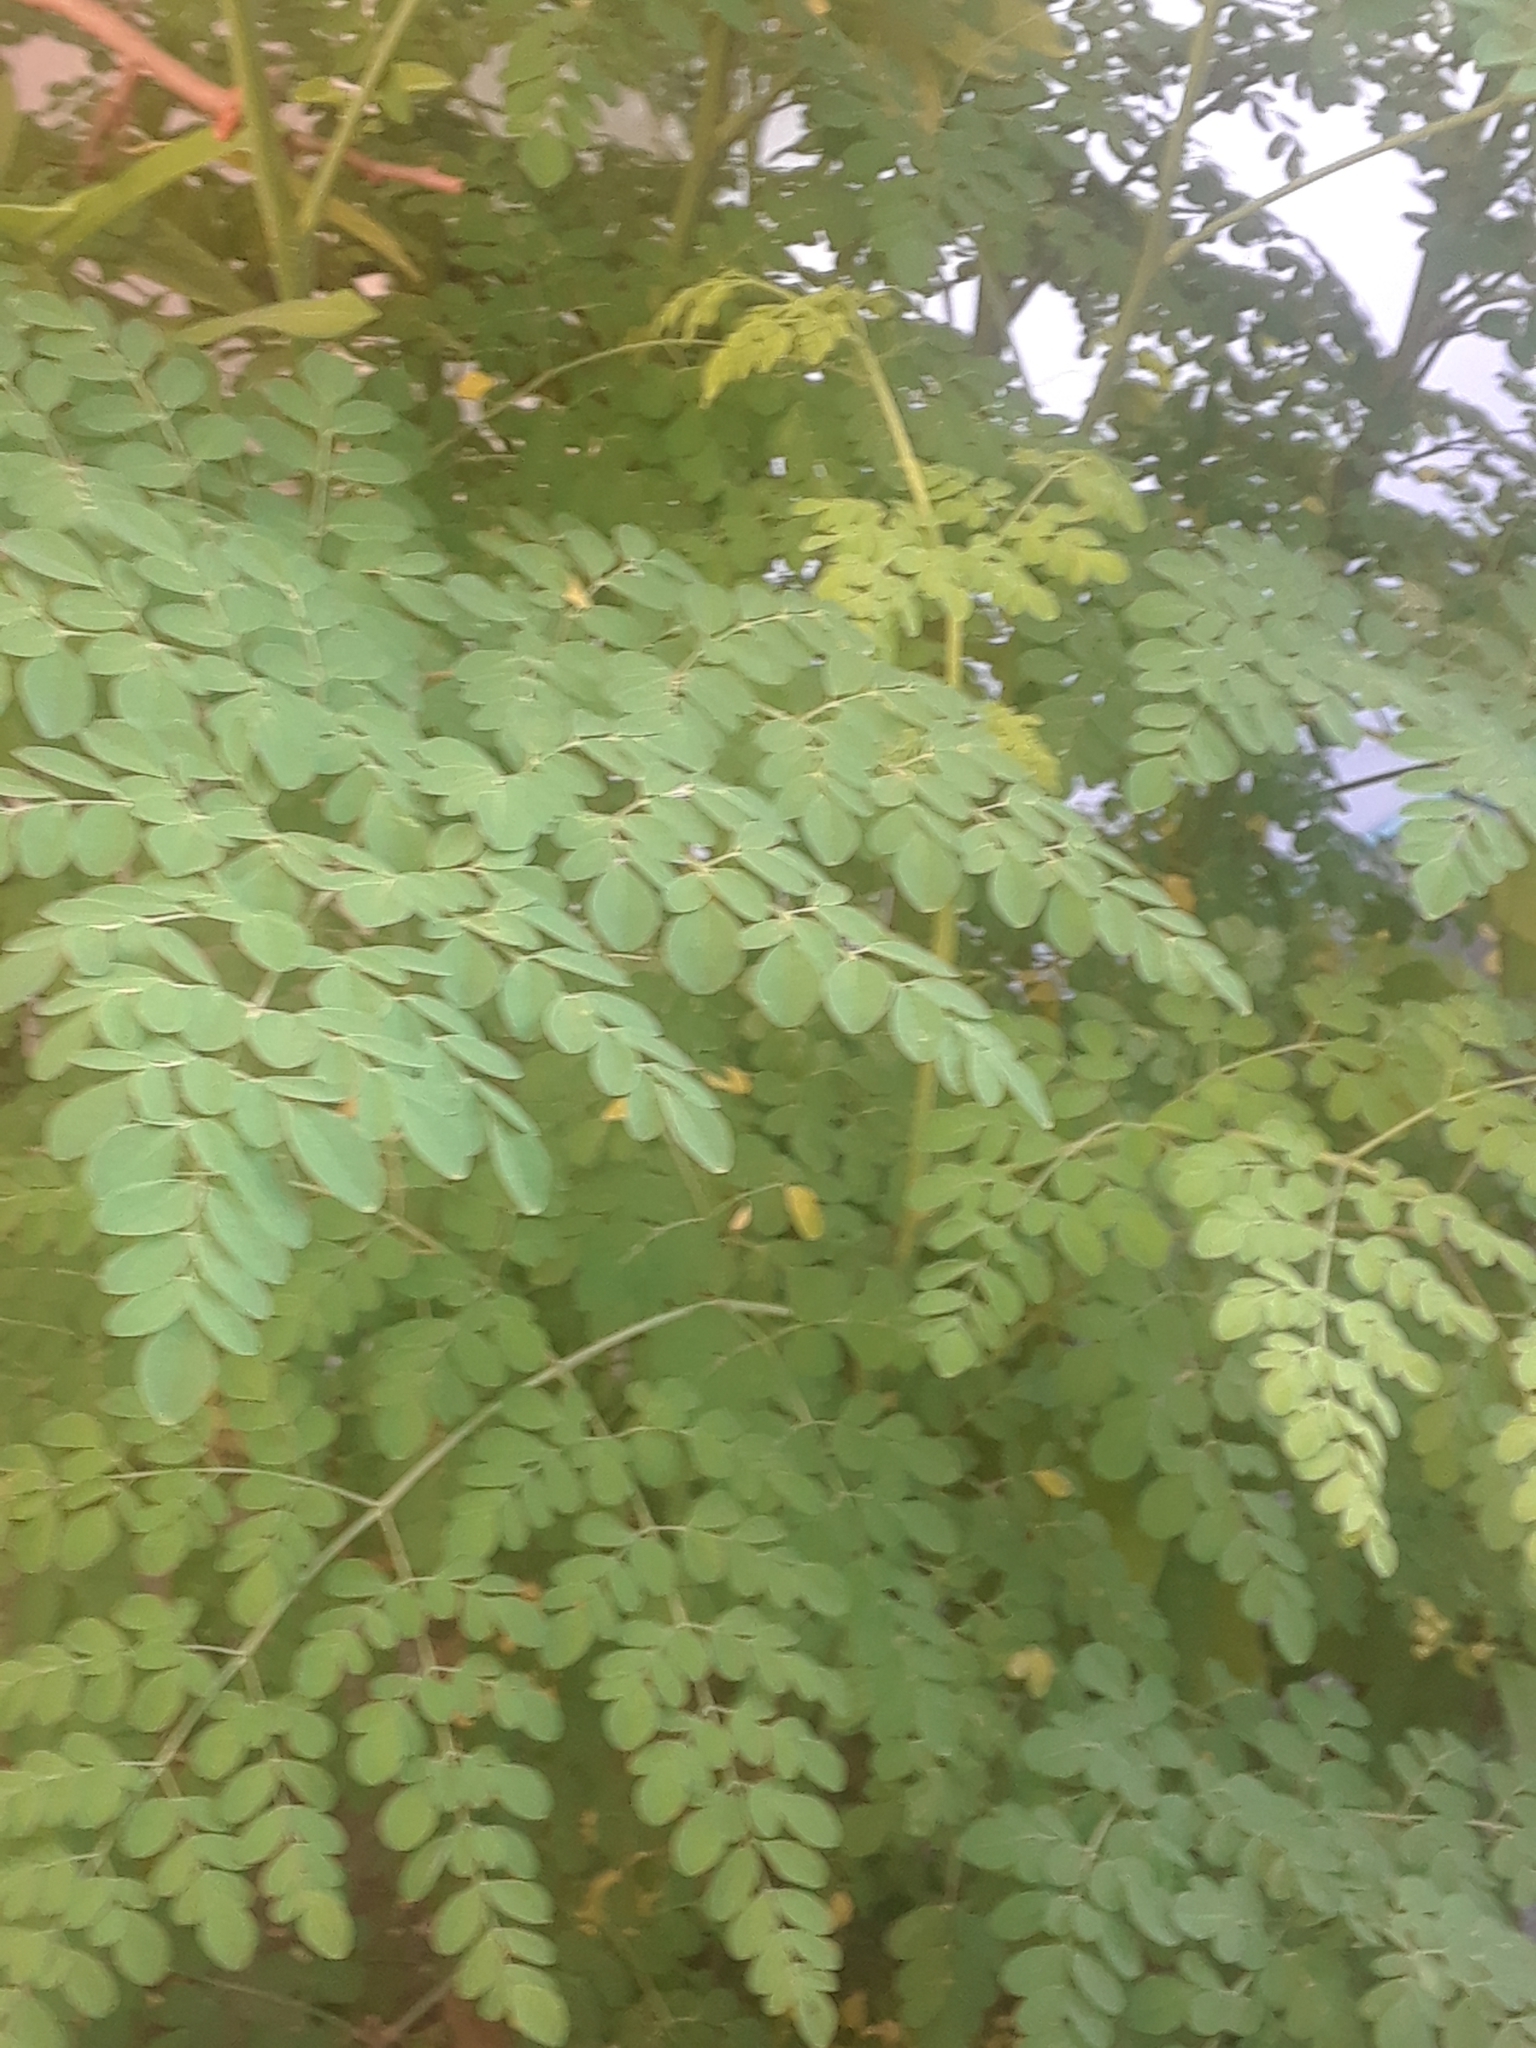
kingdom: Plantae
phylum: Tracheophyta
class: Magnoliopsida
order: Brassicales
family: Moringaceae
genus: Moringa
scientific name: Moringa oleifera
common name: Horseradish-tree
